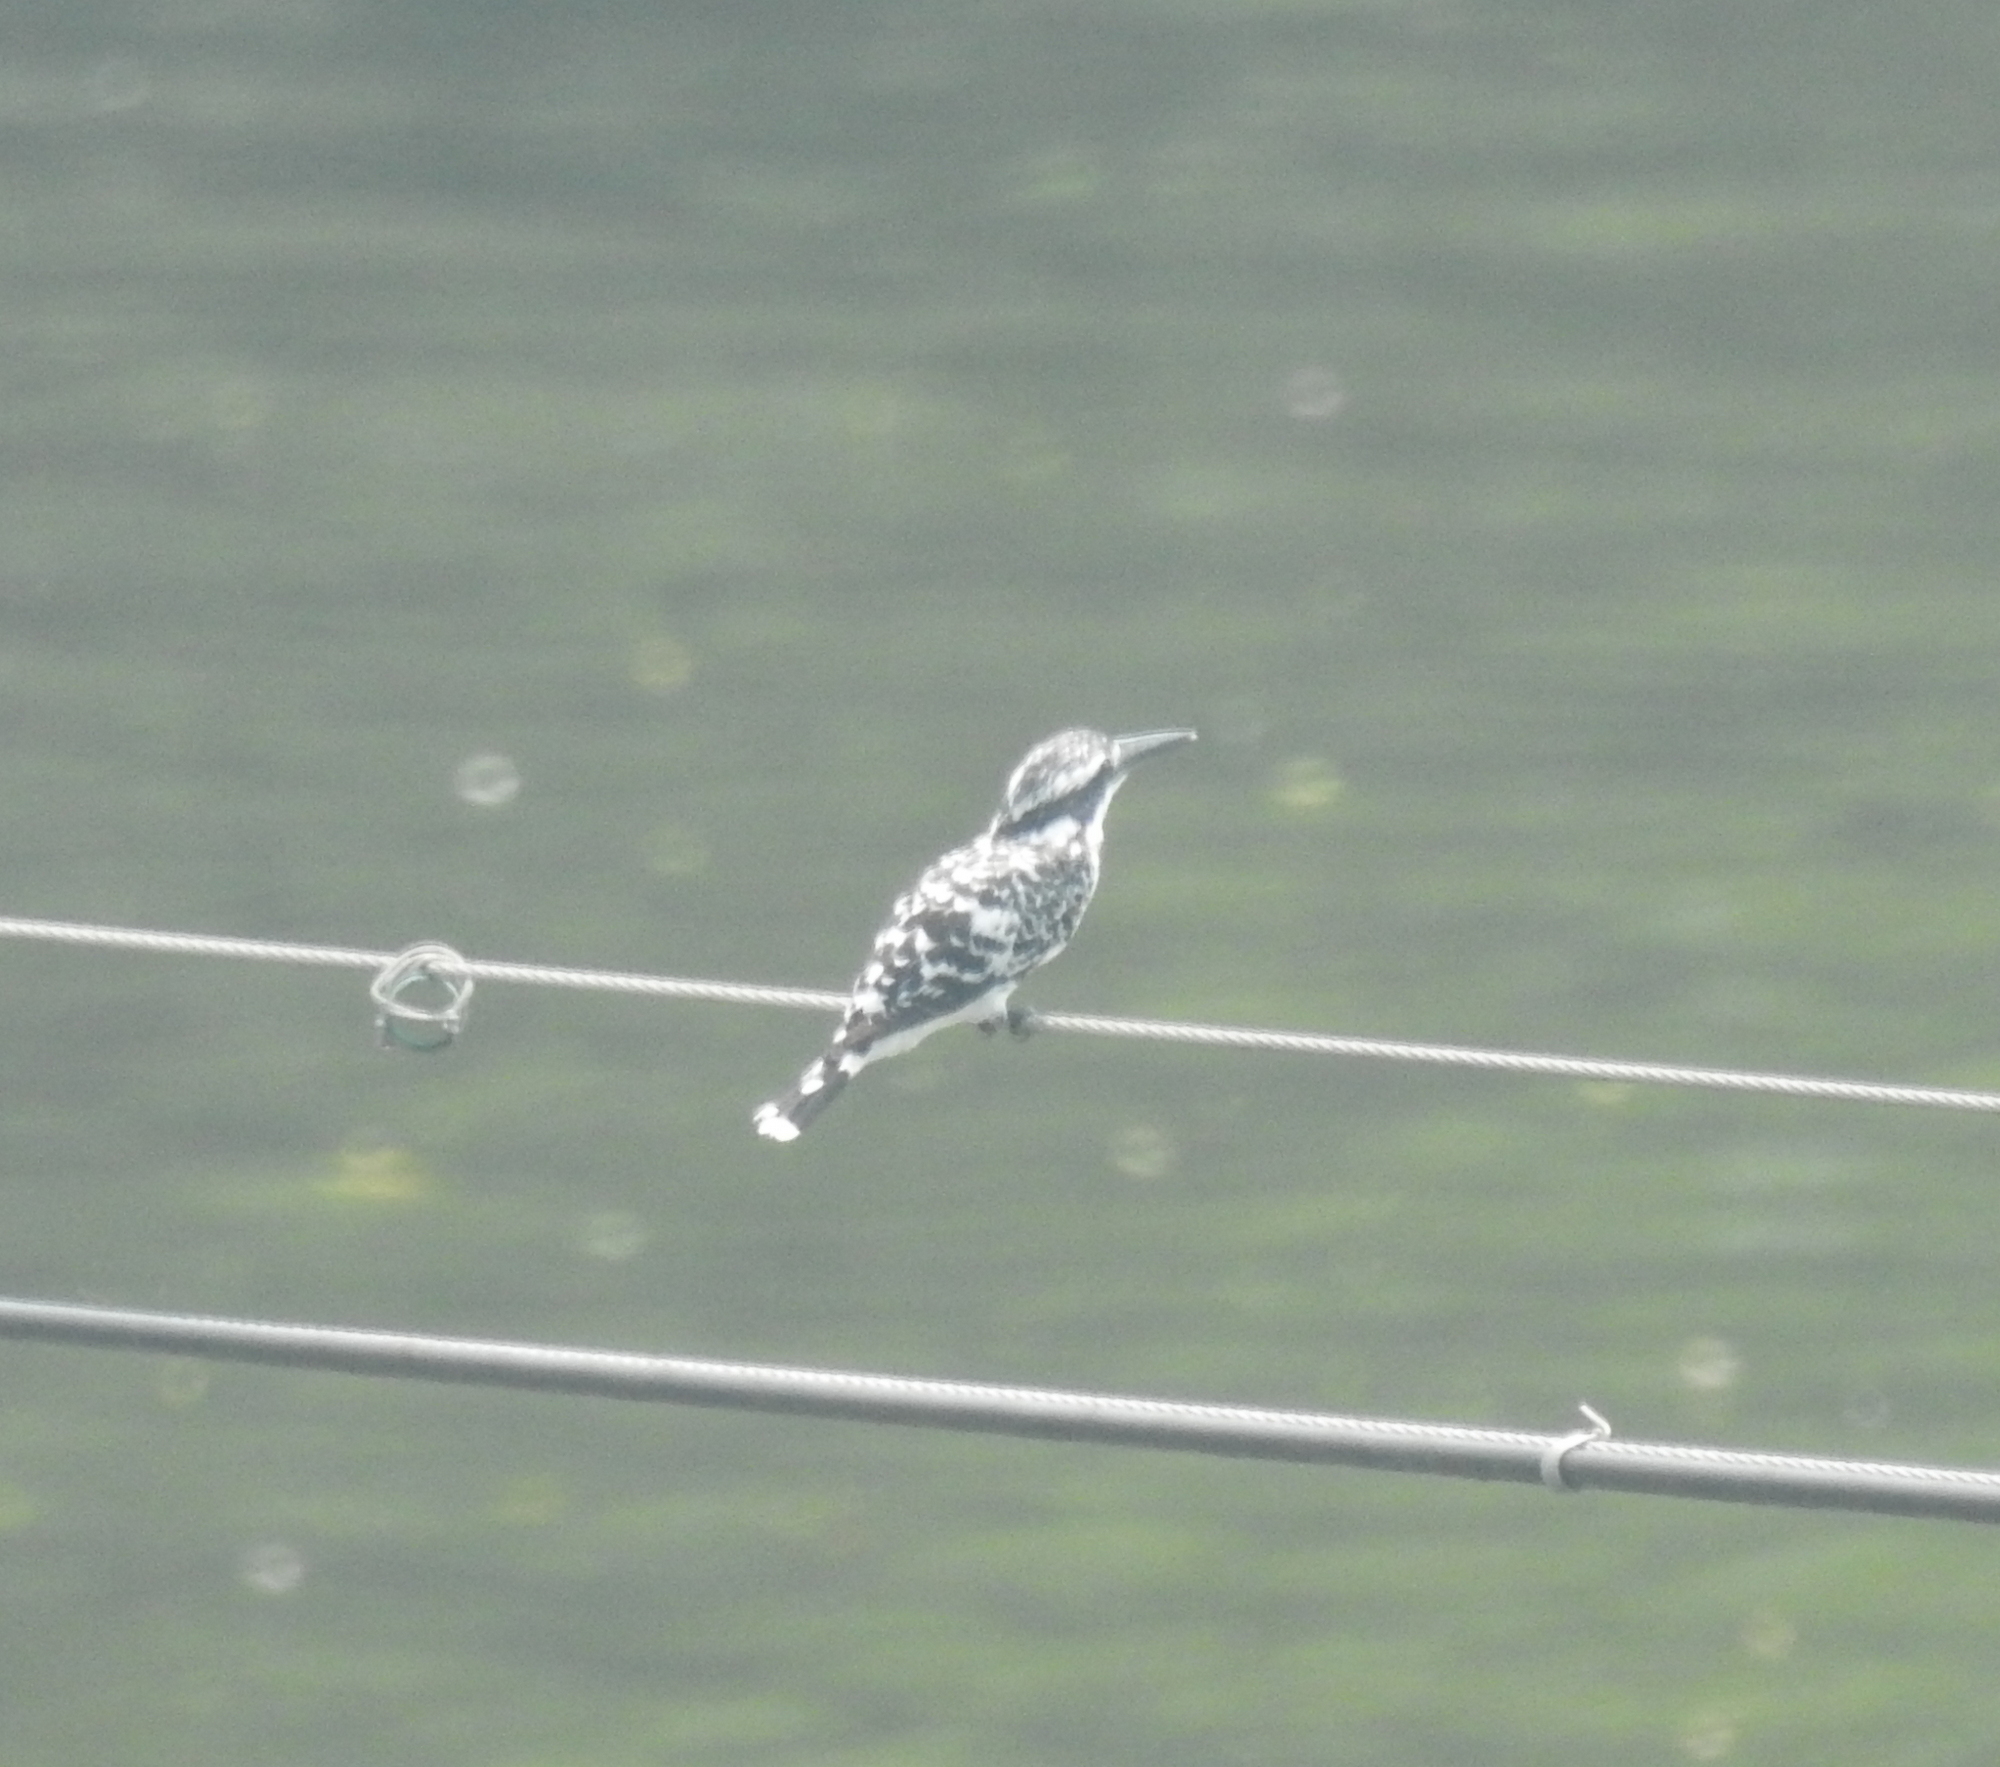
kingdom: Animalia
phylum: Chordata
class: Aves
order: Coraciiformes
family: Alcedinidae
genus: Ceryle
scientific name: Ceryle rudis
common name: Pied kingfisher
